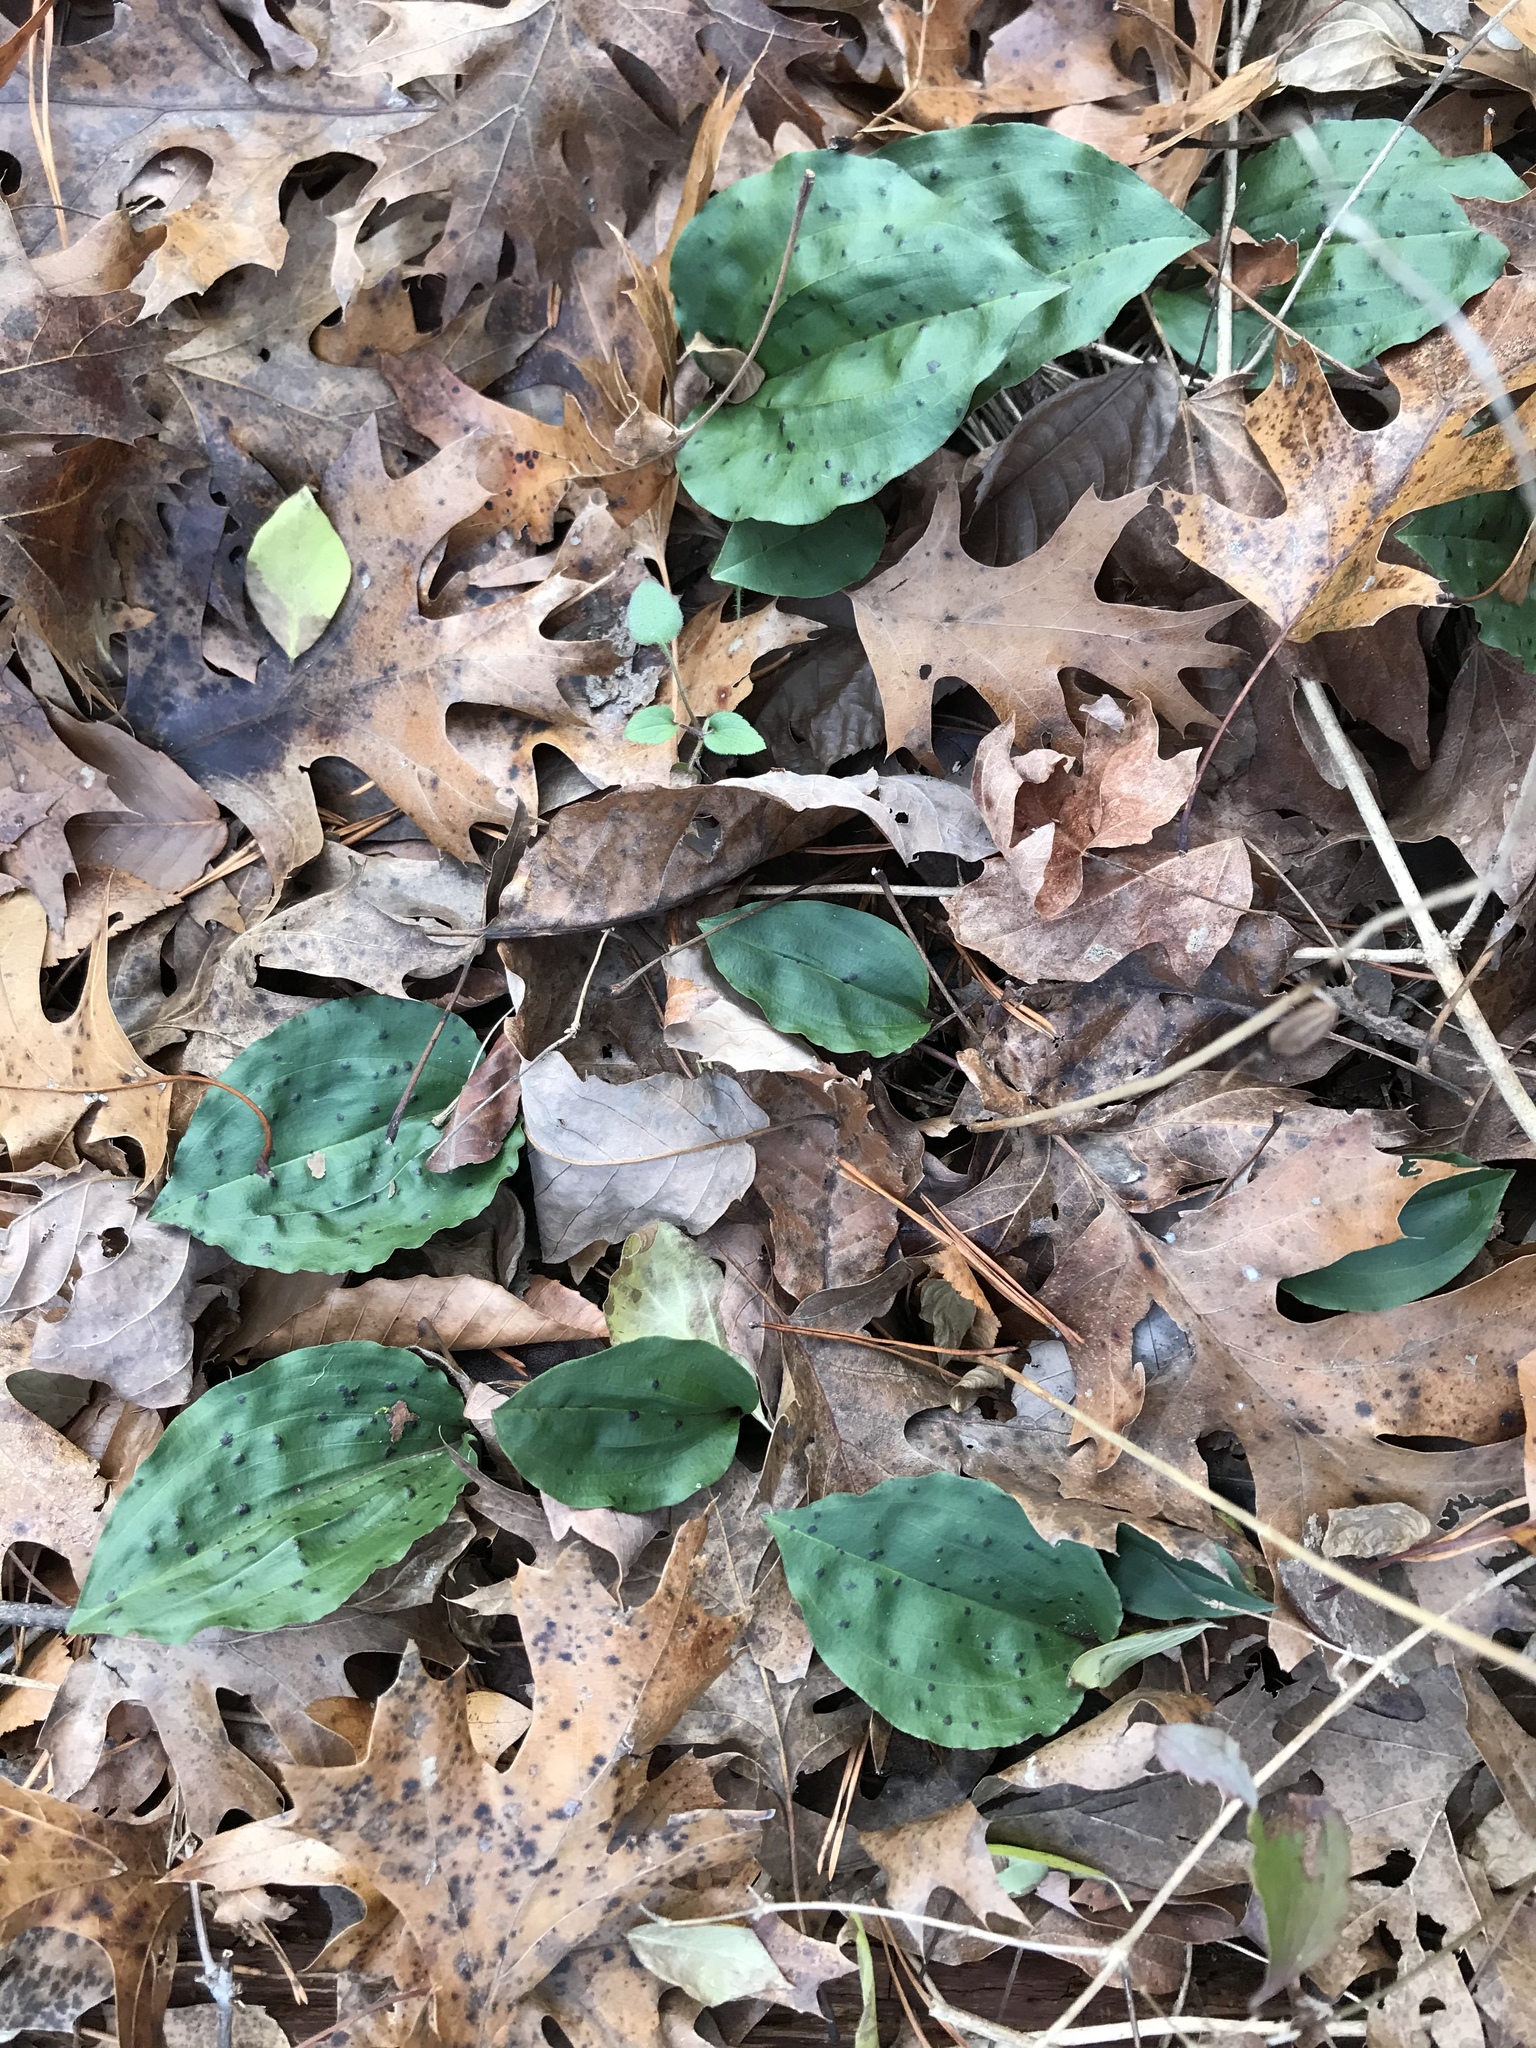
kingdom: Plantae
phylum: Tracheophyta
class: Liliopsida
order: Asparagales
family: Orchidaceae
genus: Tipularia
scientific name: Tipularia discolor
